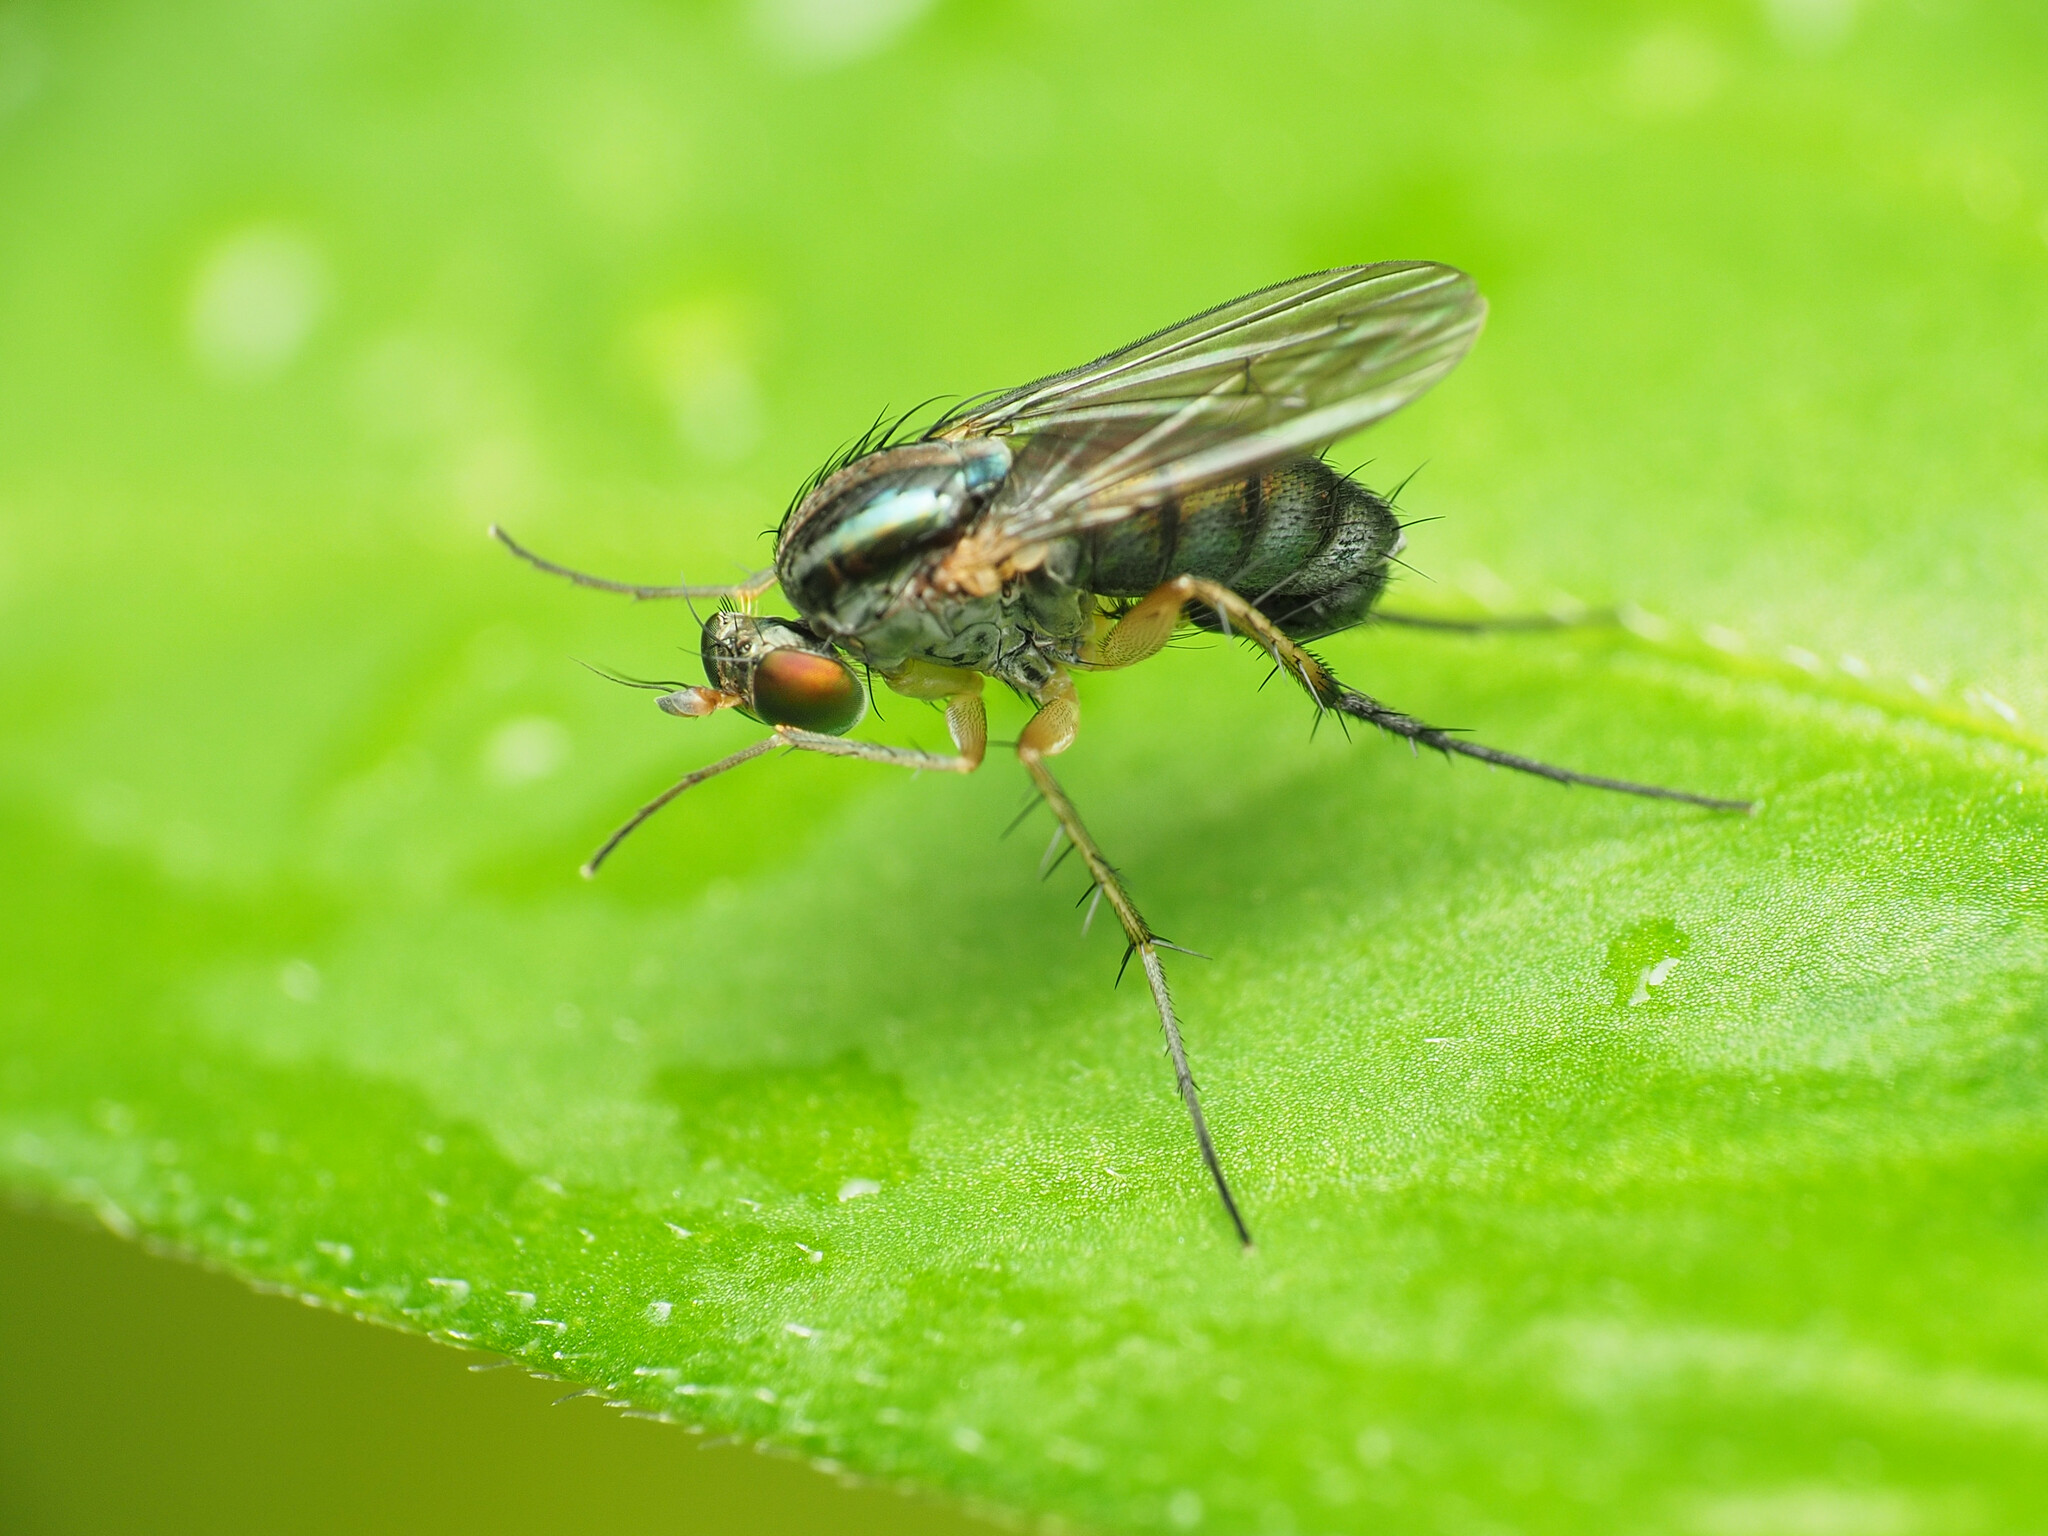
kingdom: Animalia
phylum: Arthropoda
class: Insecta
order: Diptera
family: Dolichopodidae
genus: Dolichopus
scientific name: Dolichopus reflectus
